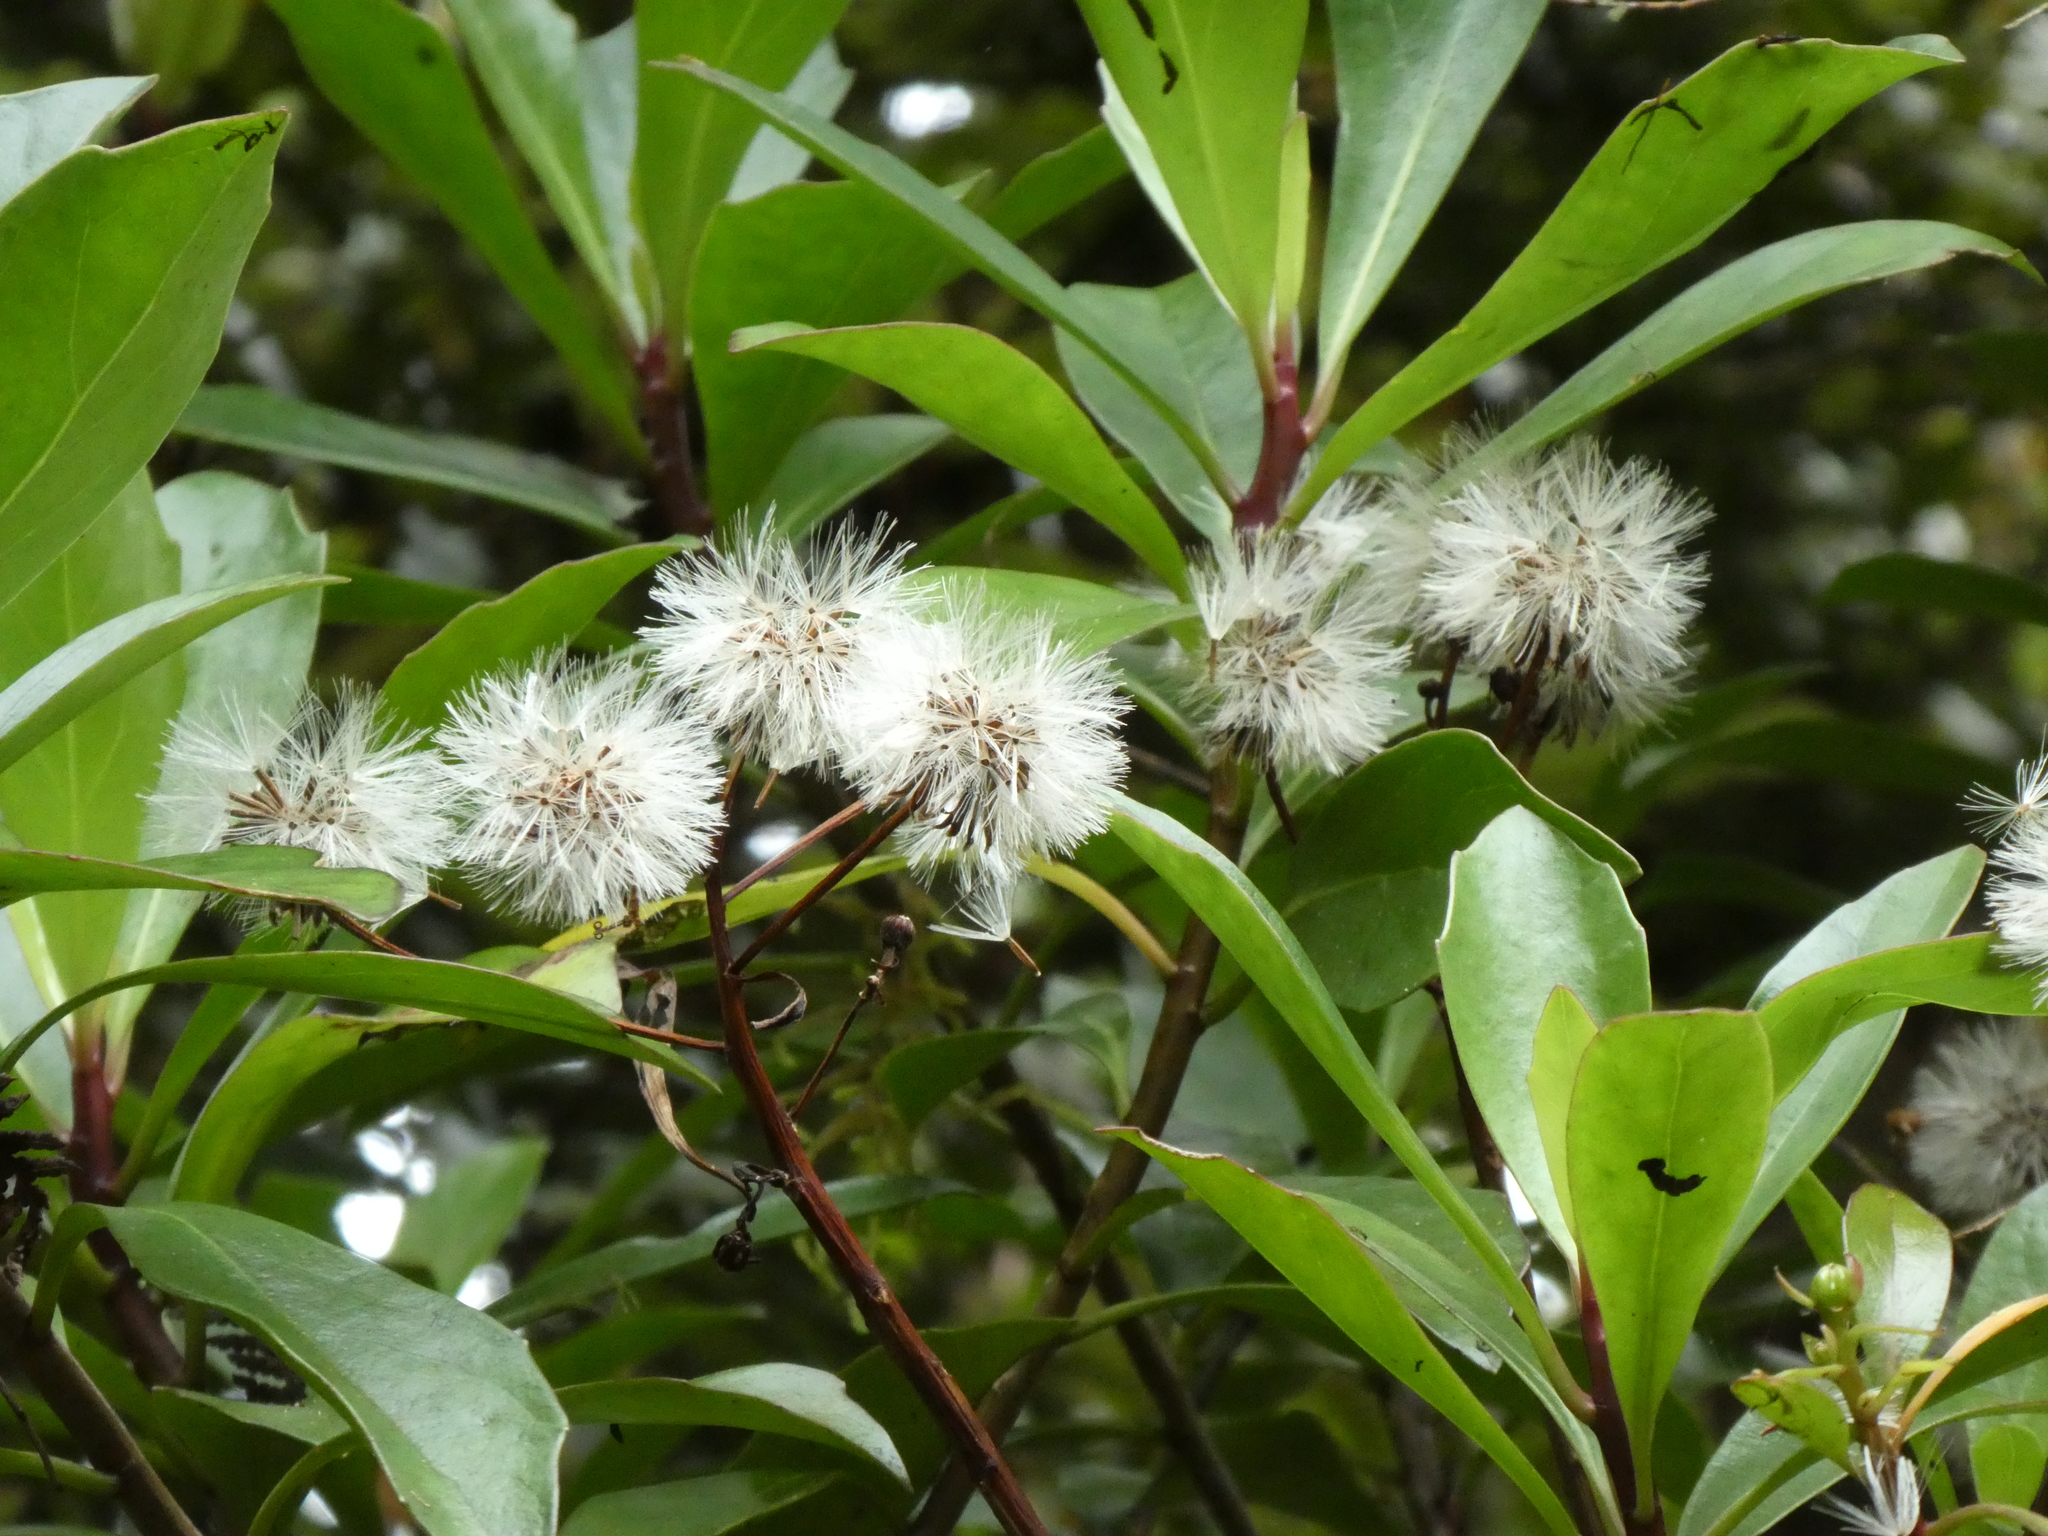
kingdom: Plantae
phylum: Tracheophyta
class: Magnoliopsida
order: Asterales
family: Asteraceae
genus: Brachyglottis
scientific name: Brachyglottis kirkii
